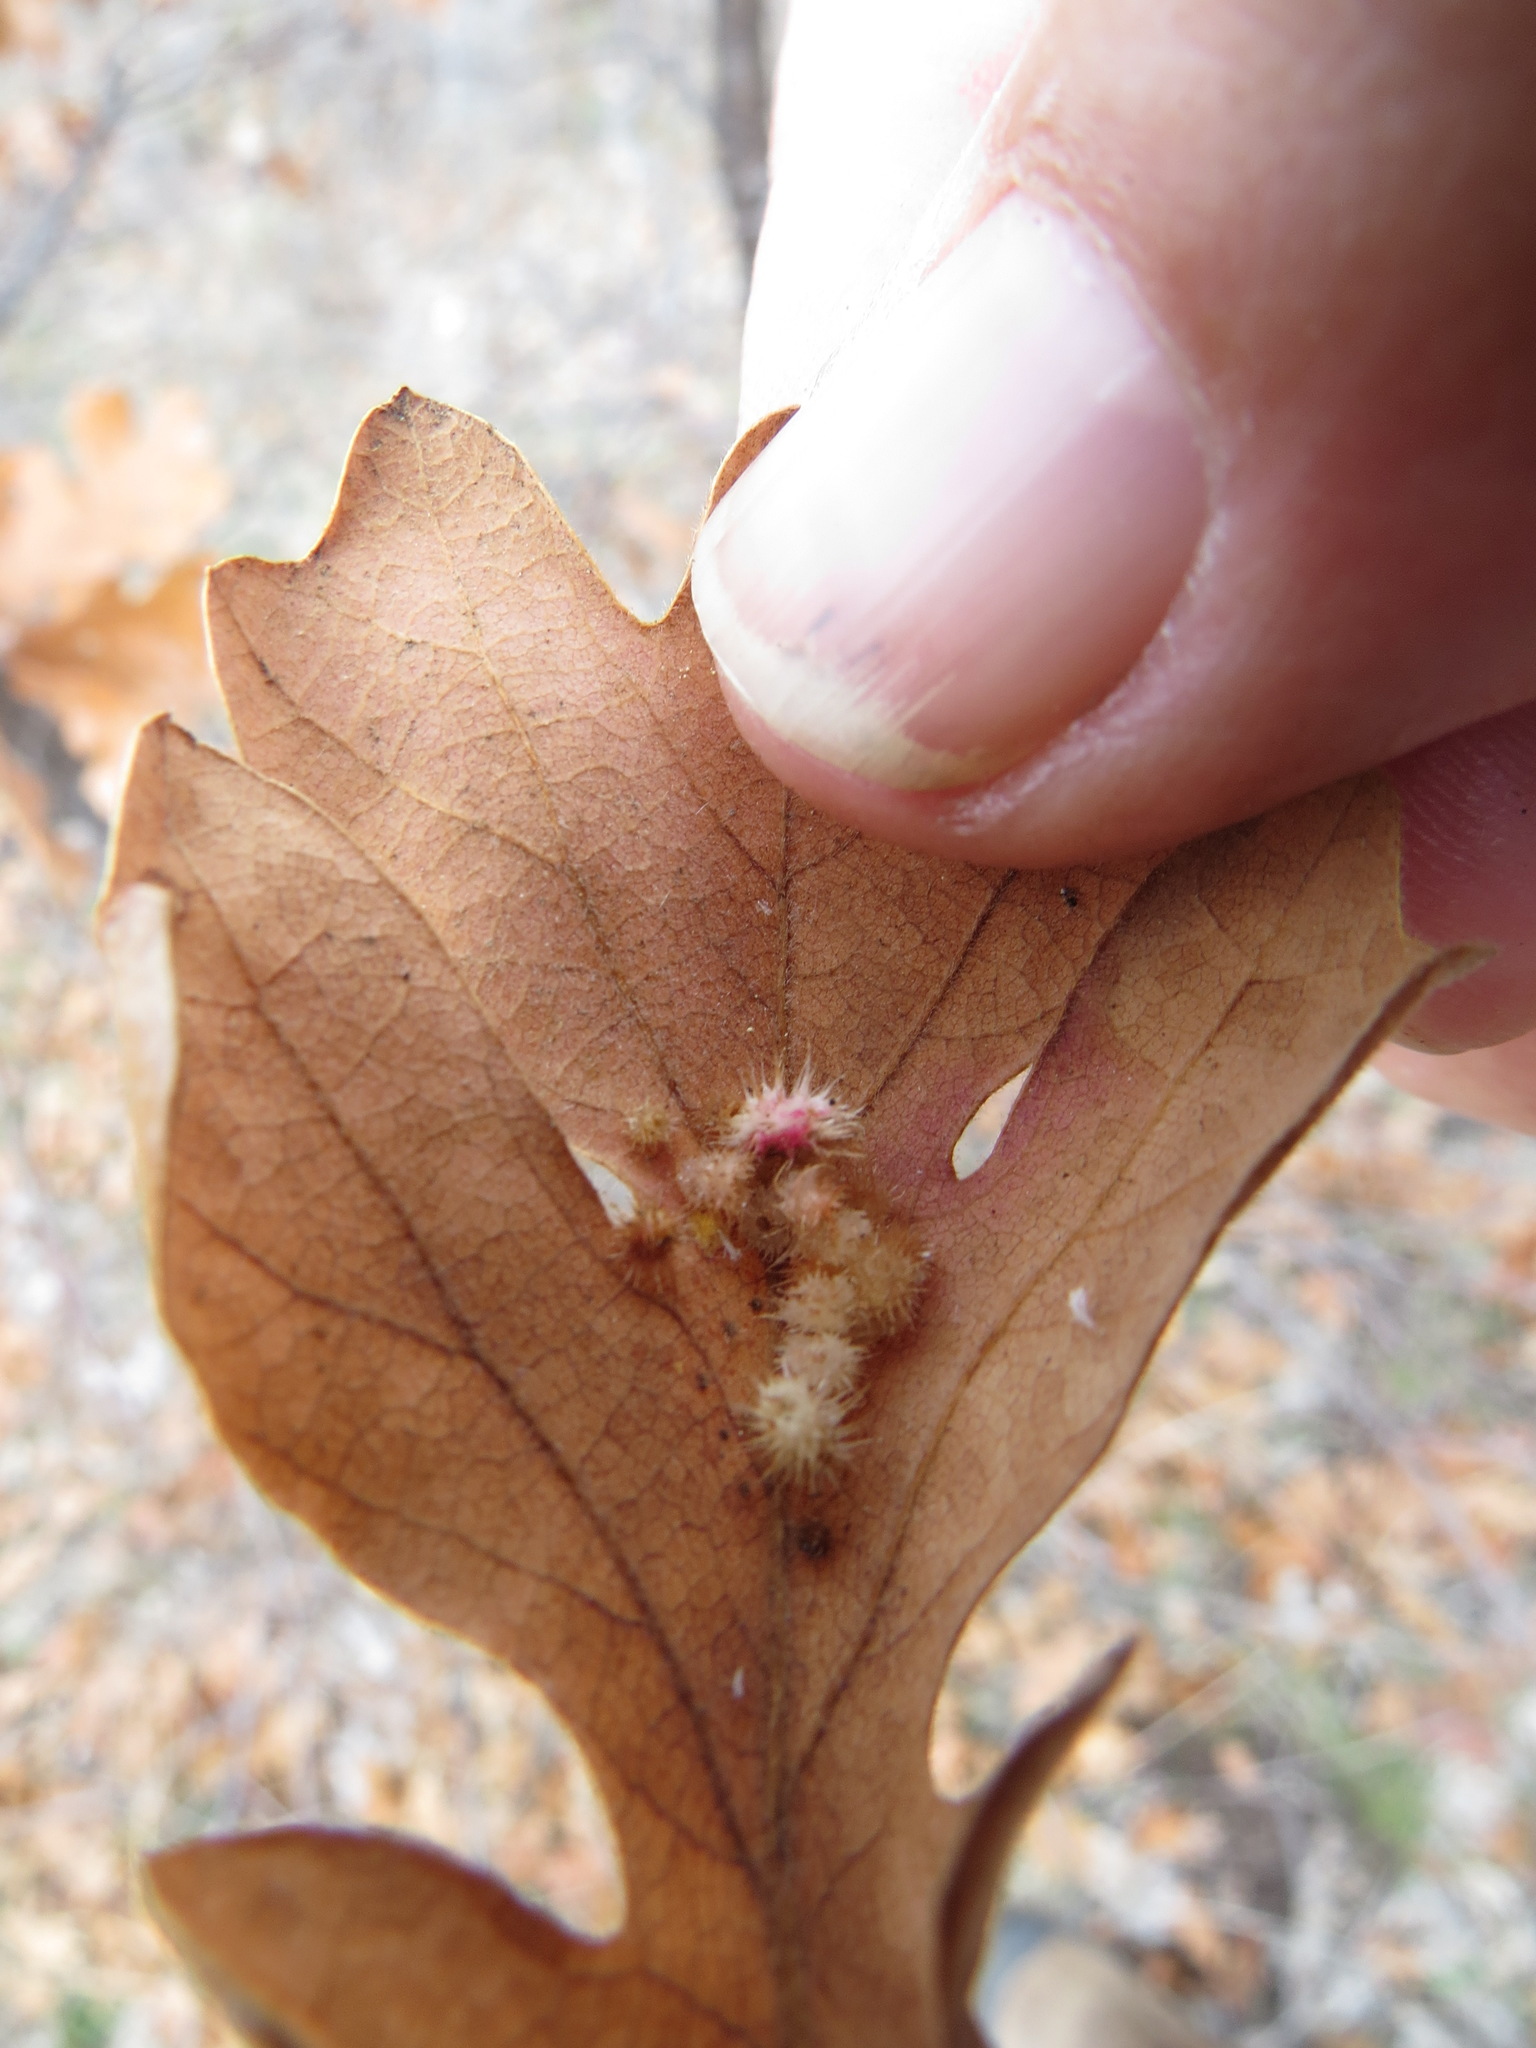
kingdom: Animalia
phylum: Arthropoda
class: Insecta
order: Hymenoptera
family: Cynipidae
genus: Andricus
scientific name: Andricus
